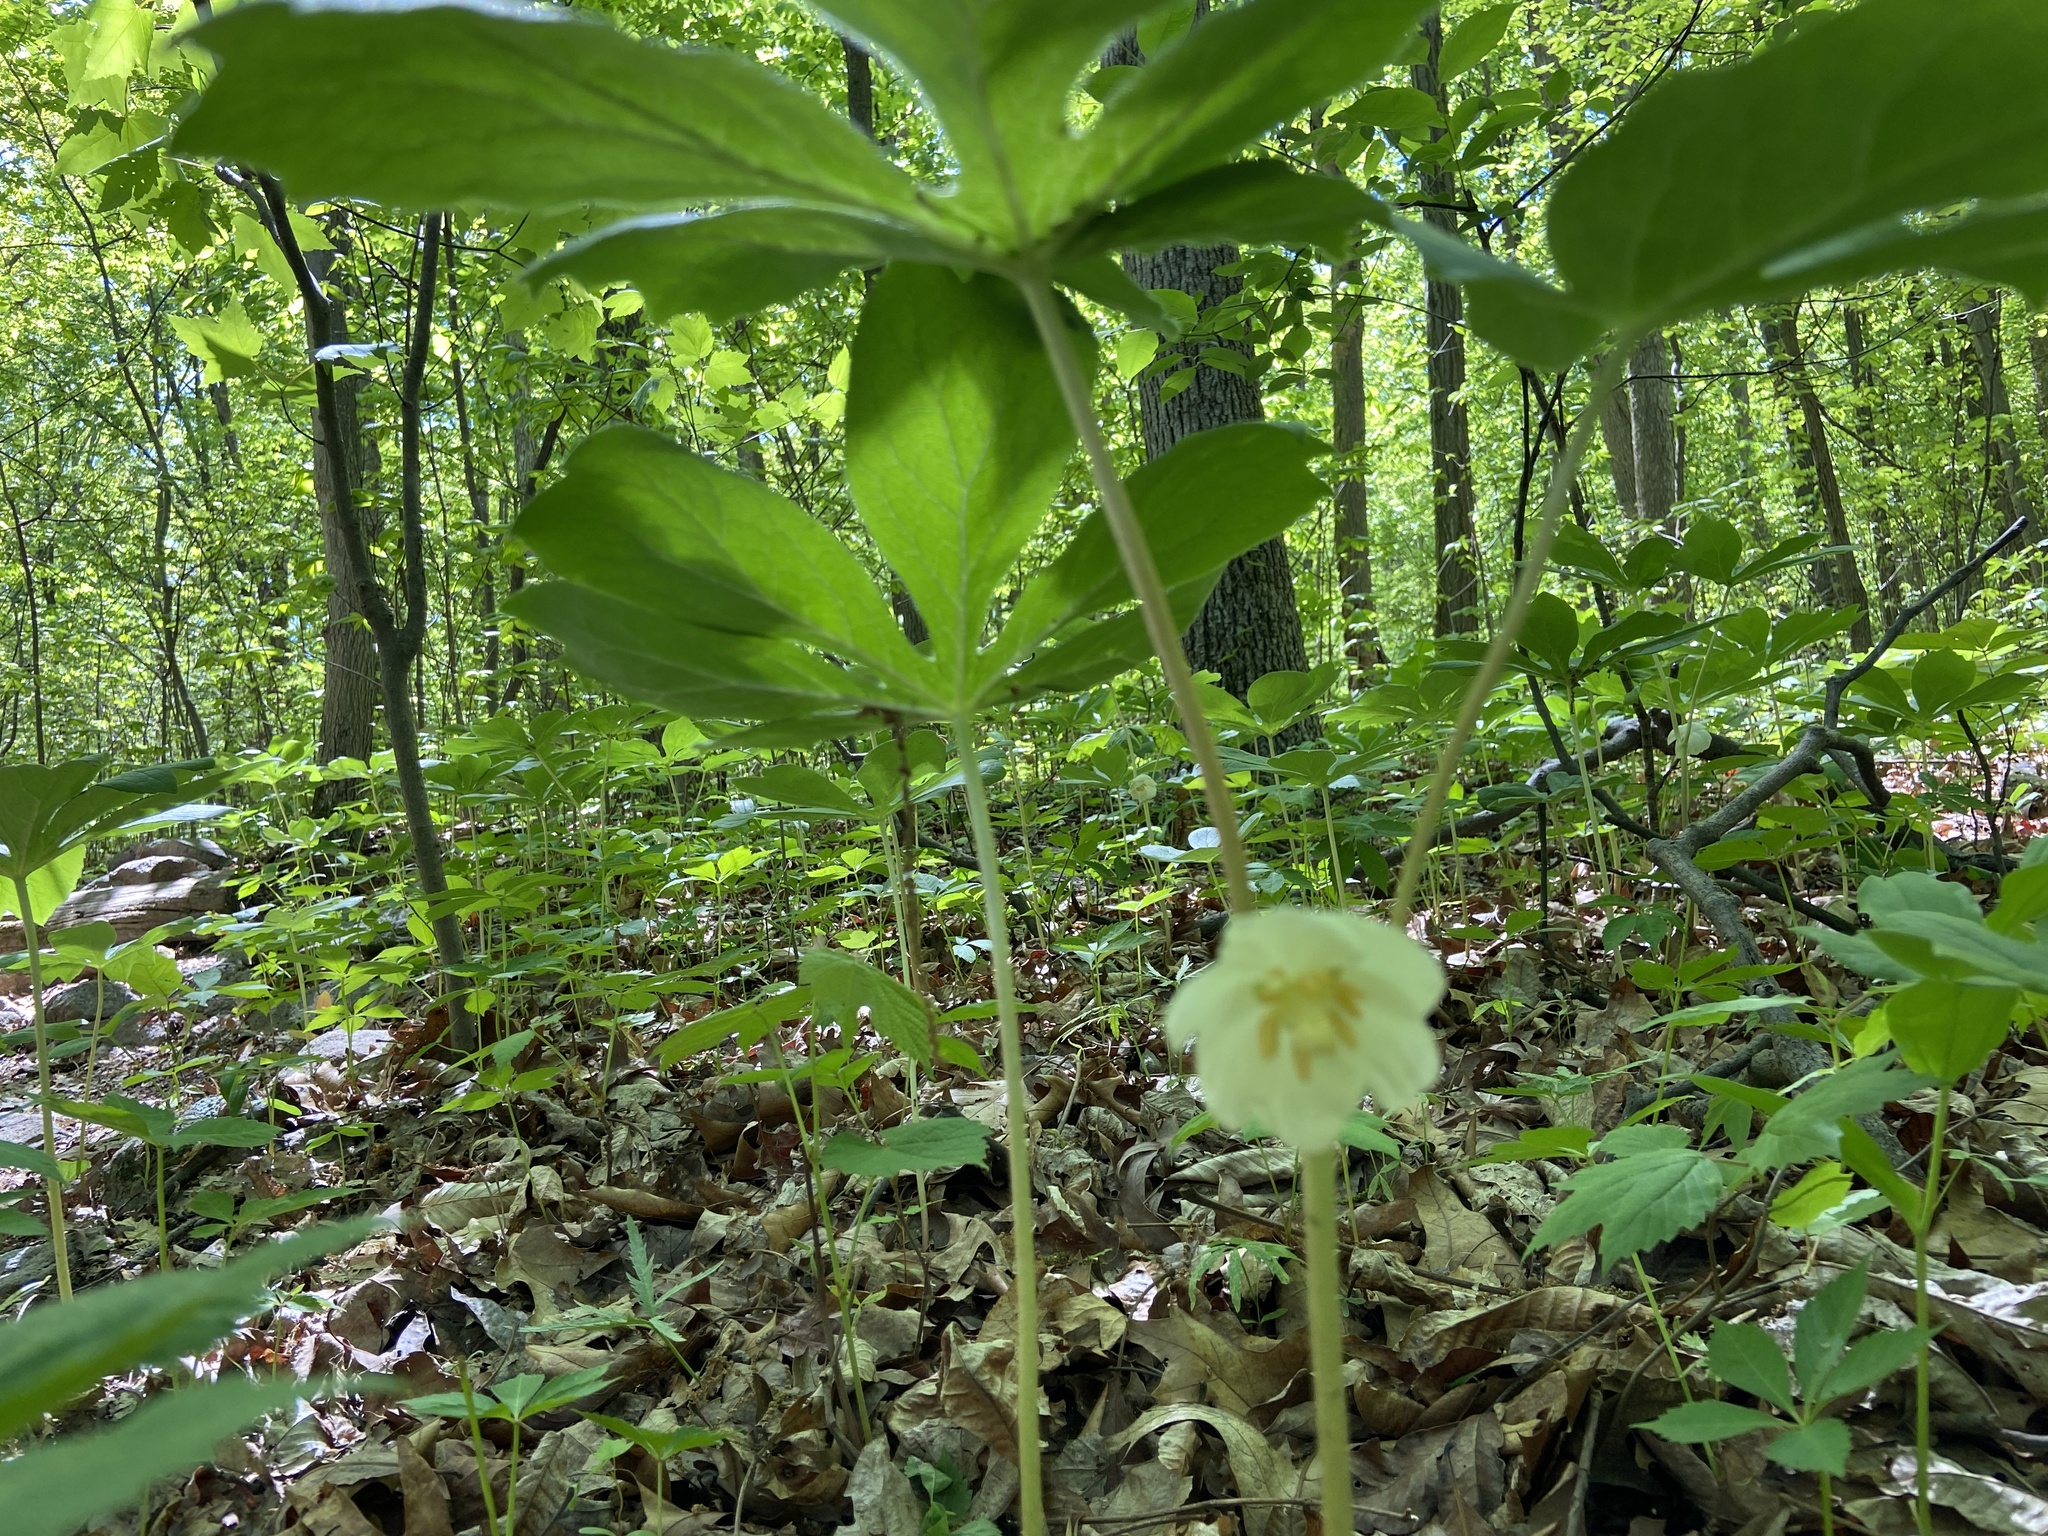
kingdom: Plantae
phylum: Tracheophyta
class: Magnoliopsida
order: Ranunculales
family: Berberidaceae
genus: Podophyllum
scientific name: Podophyllum peltatum
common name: Wild mandrake
